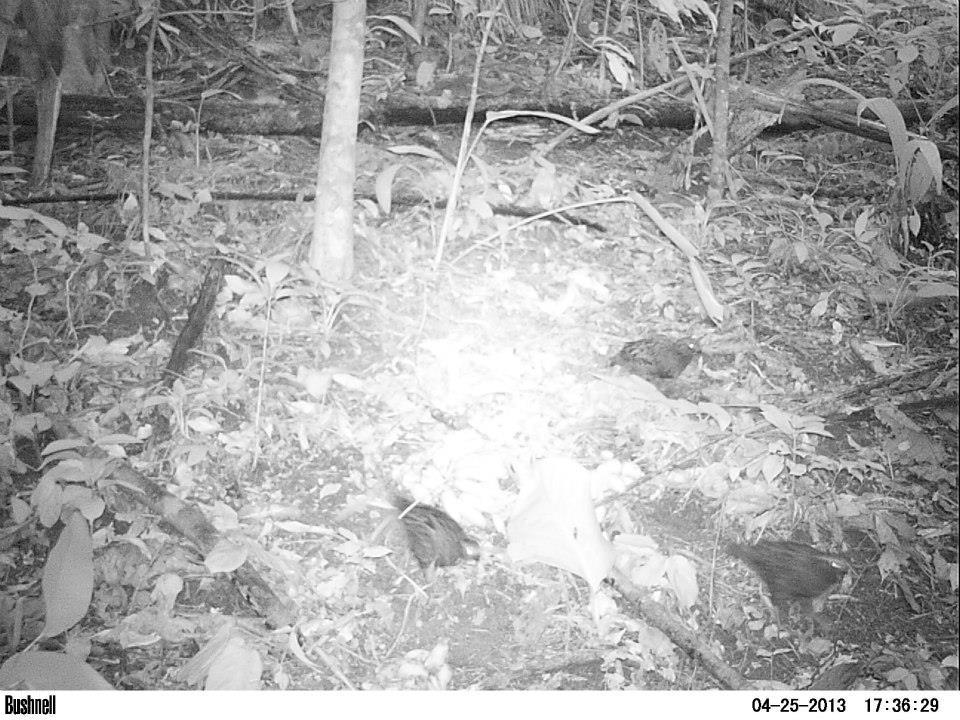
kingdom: Animalia
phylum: Chordata
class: Aves
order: Galliformes
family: Odontophoridae
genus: Odontophorus
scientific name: Odontophorus capueira
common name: Spot-winged wood quail
